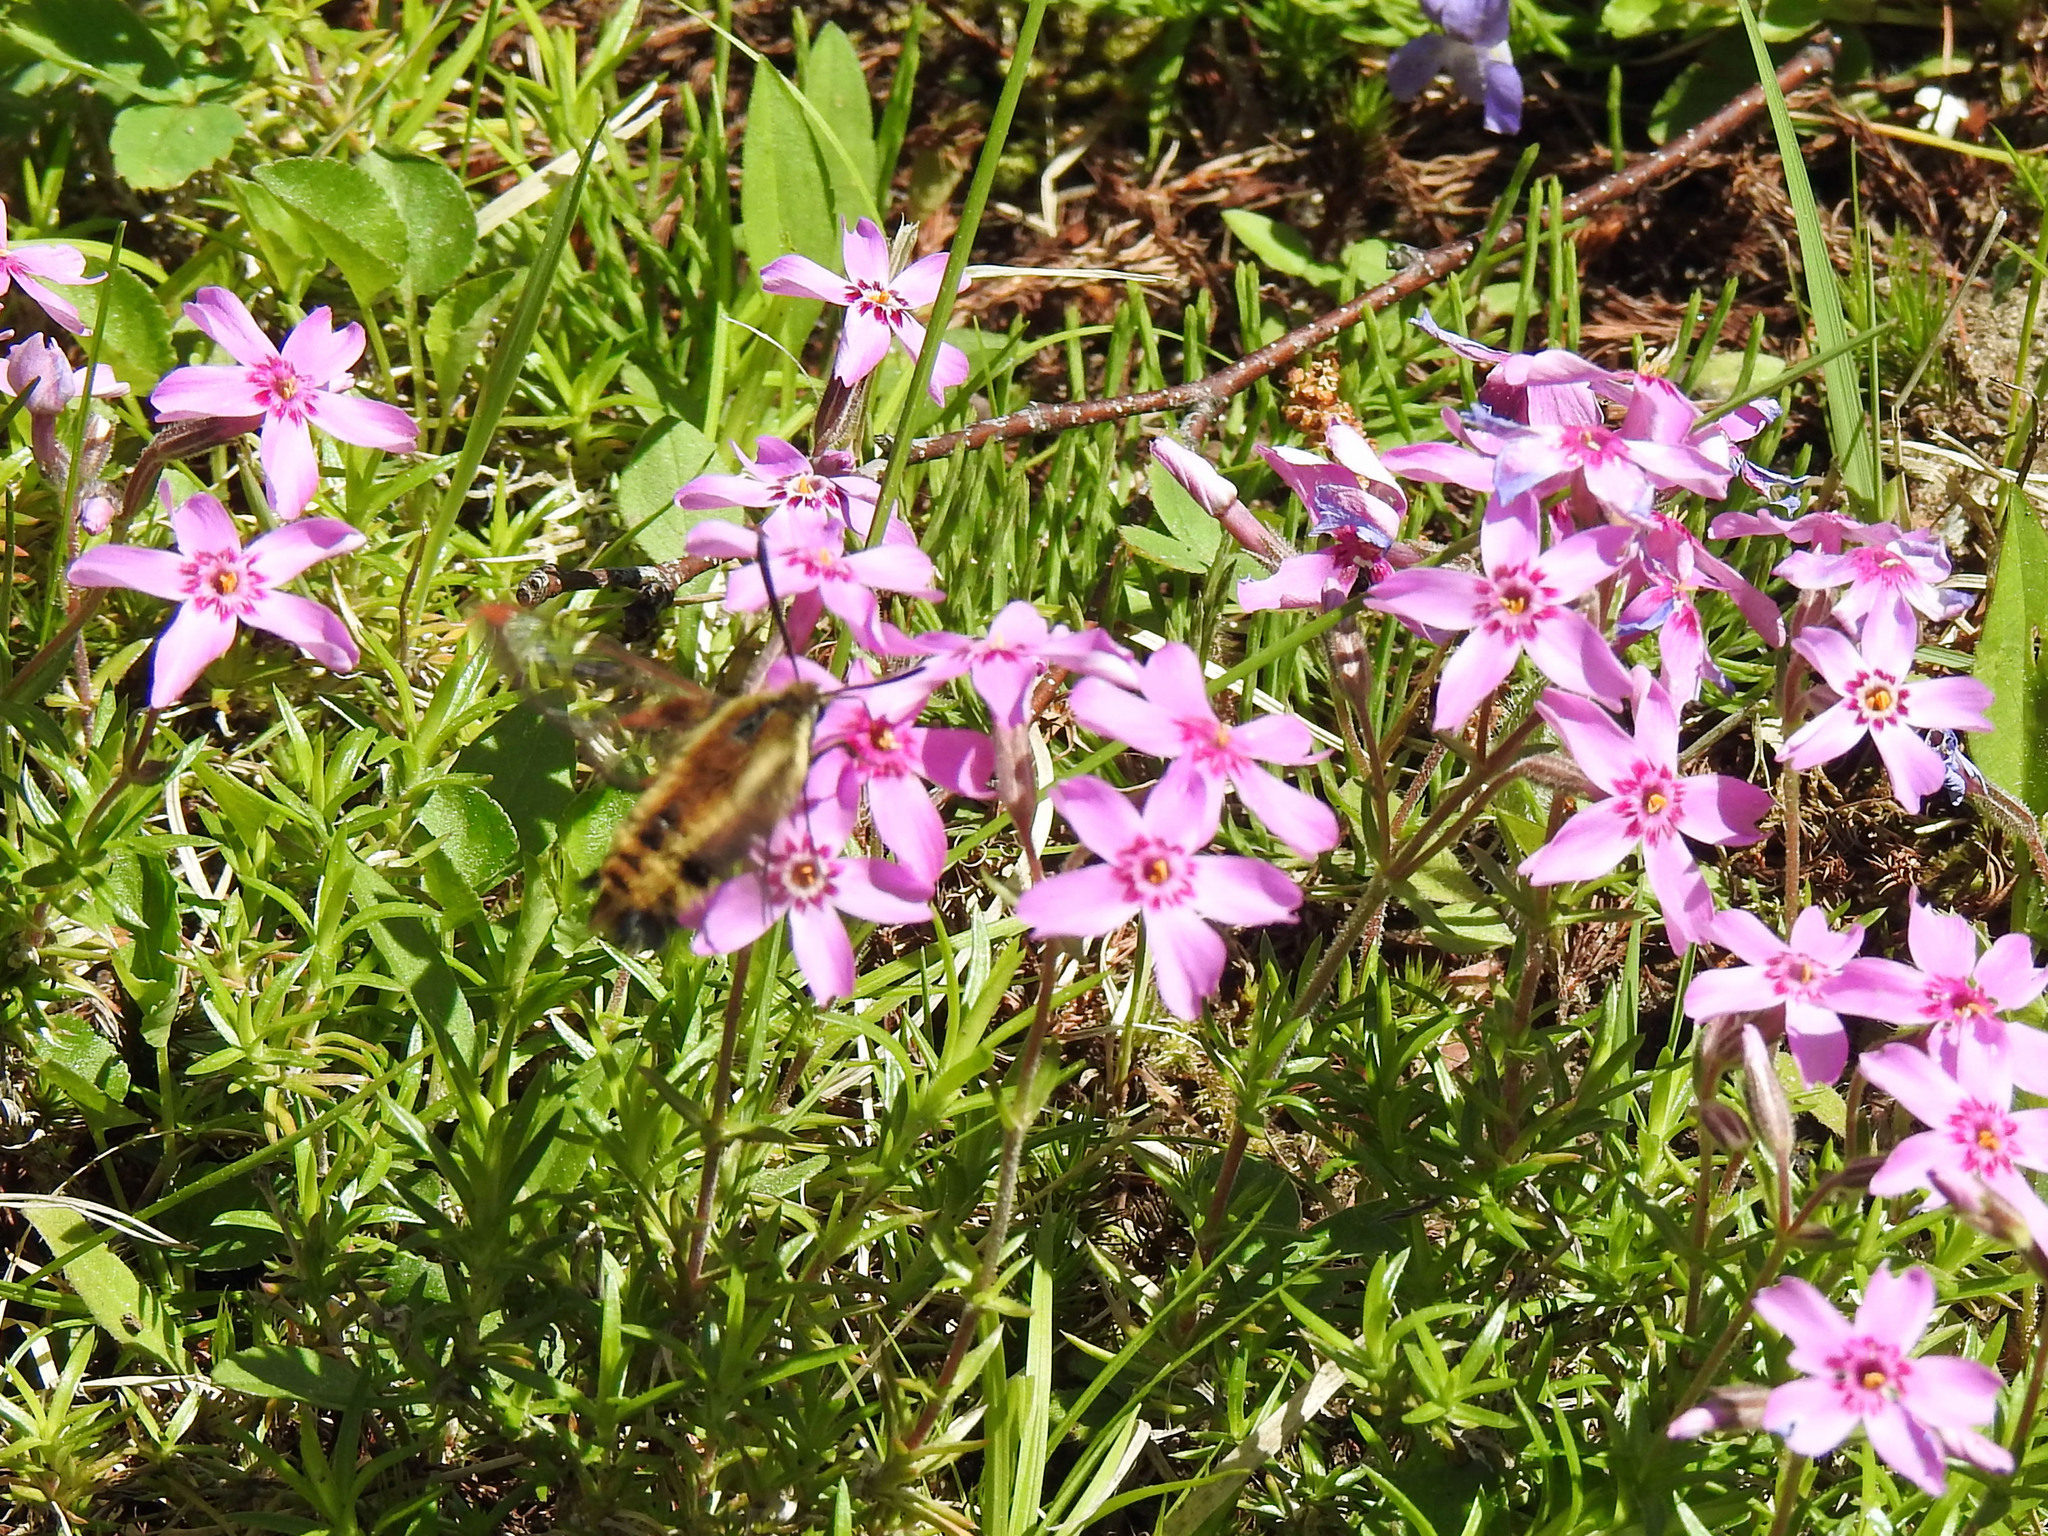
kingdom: Animalia
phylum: Arthropoda
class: Insecta
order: Lepidoptera
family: Sphingidae
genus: Hemaris
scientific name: Hemaris diffinis
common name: Bumblebee moth
